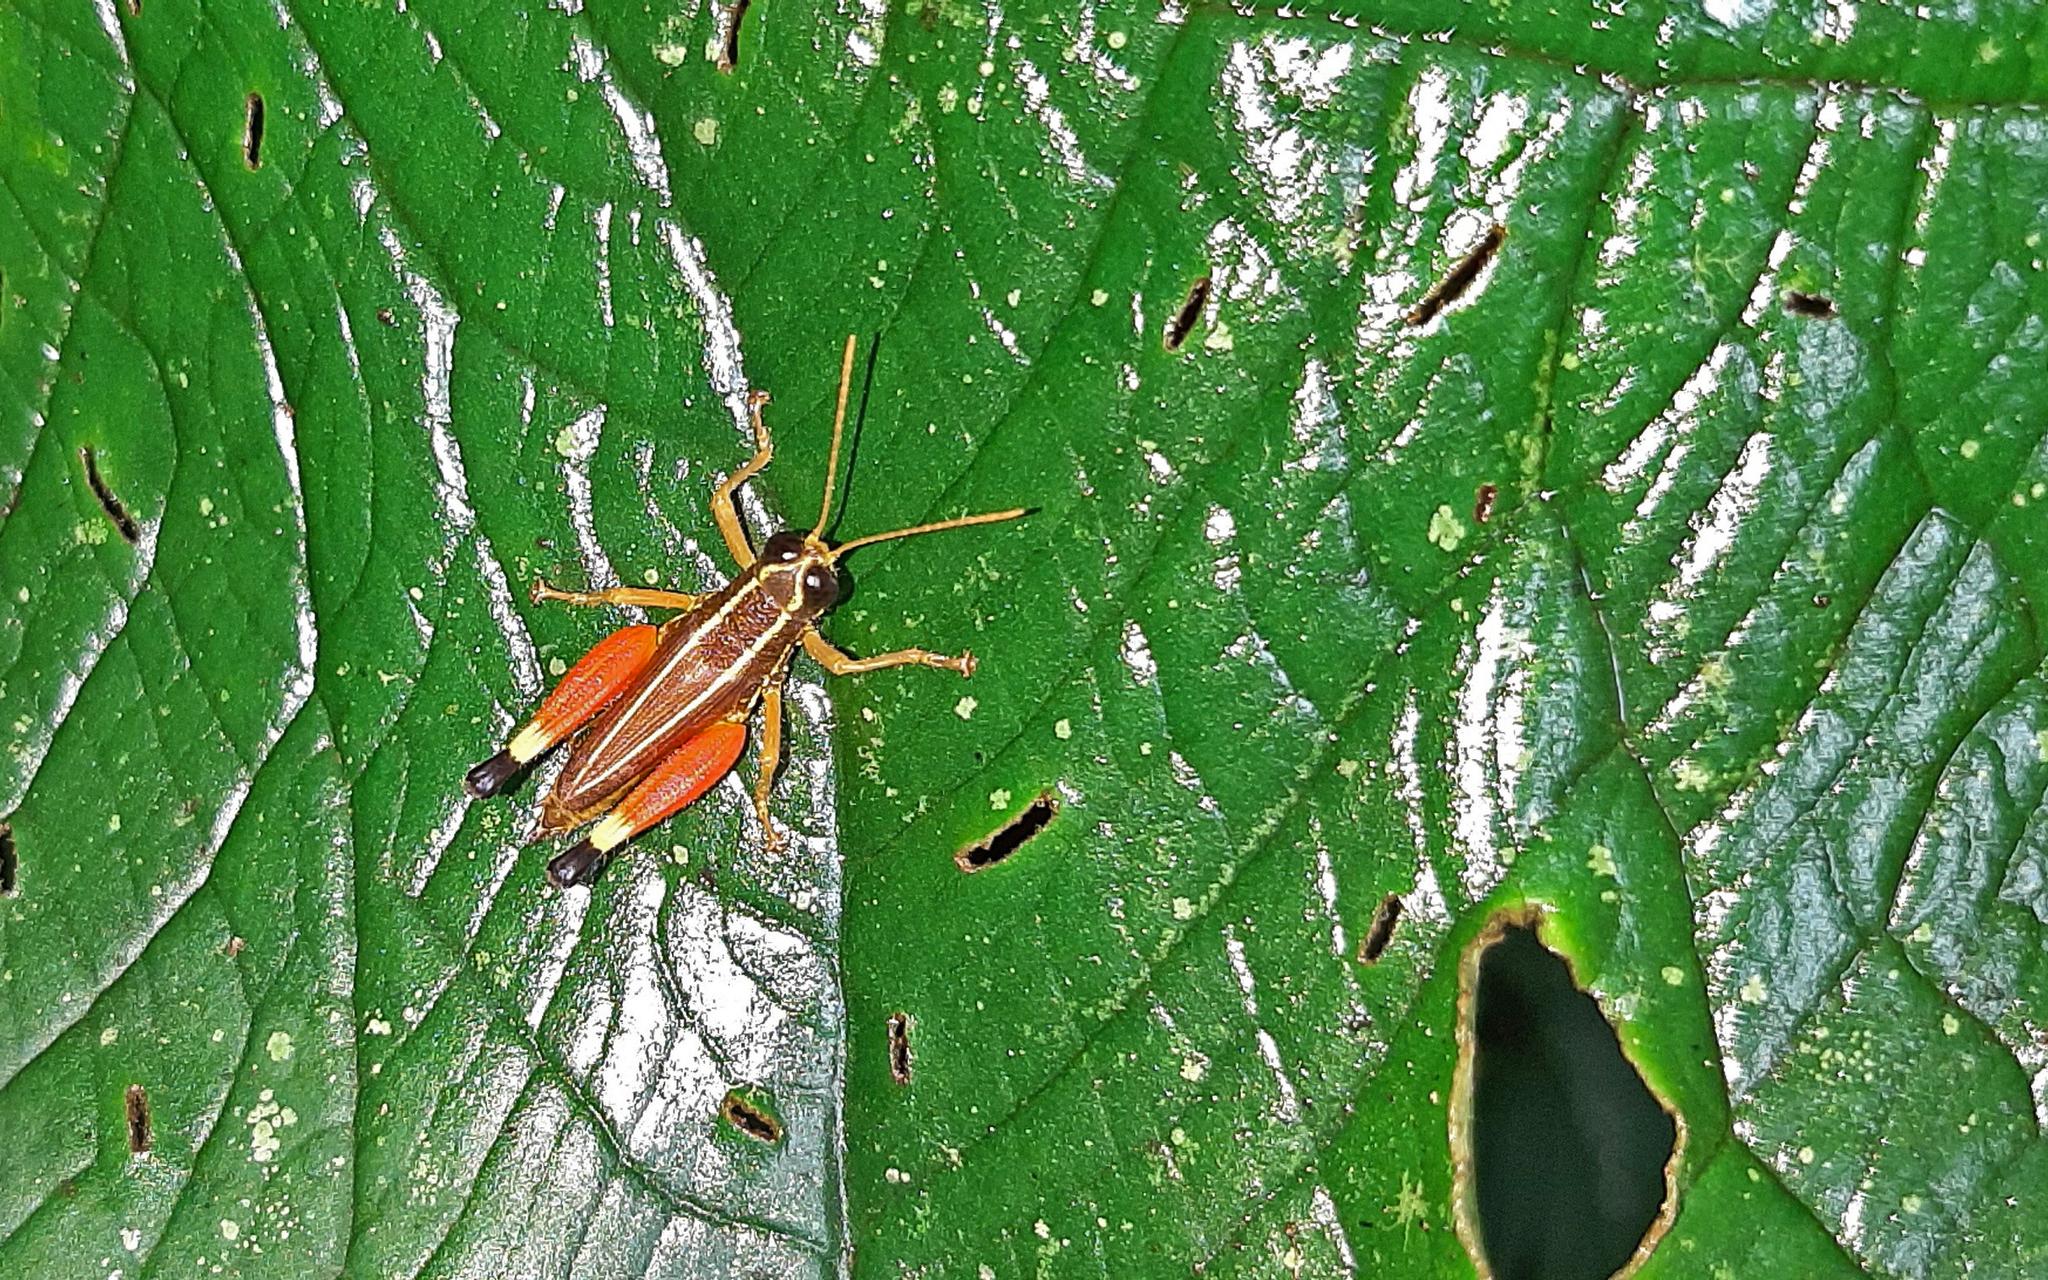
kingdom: Animalia
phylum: Arthropoda
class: Insecta
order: Orthoptera
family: Acrididae
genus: Witotacris
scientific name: Witotacris annulicrus
